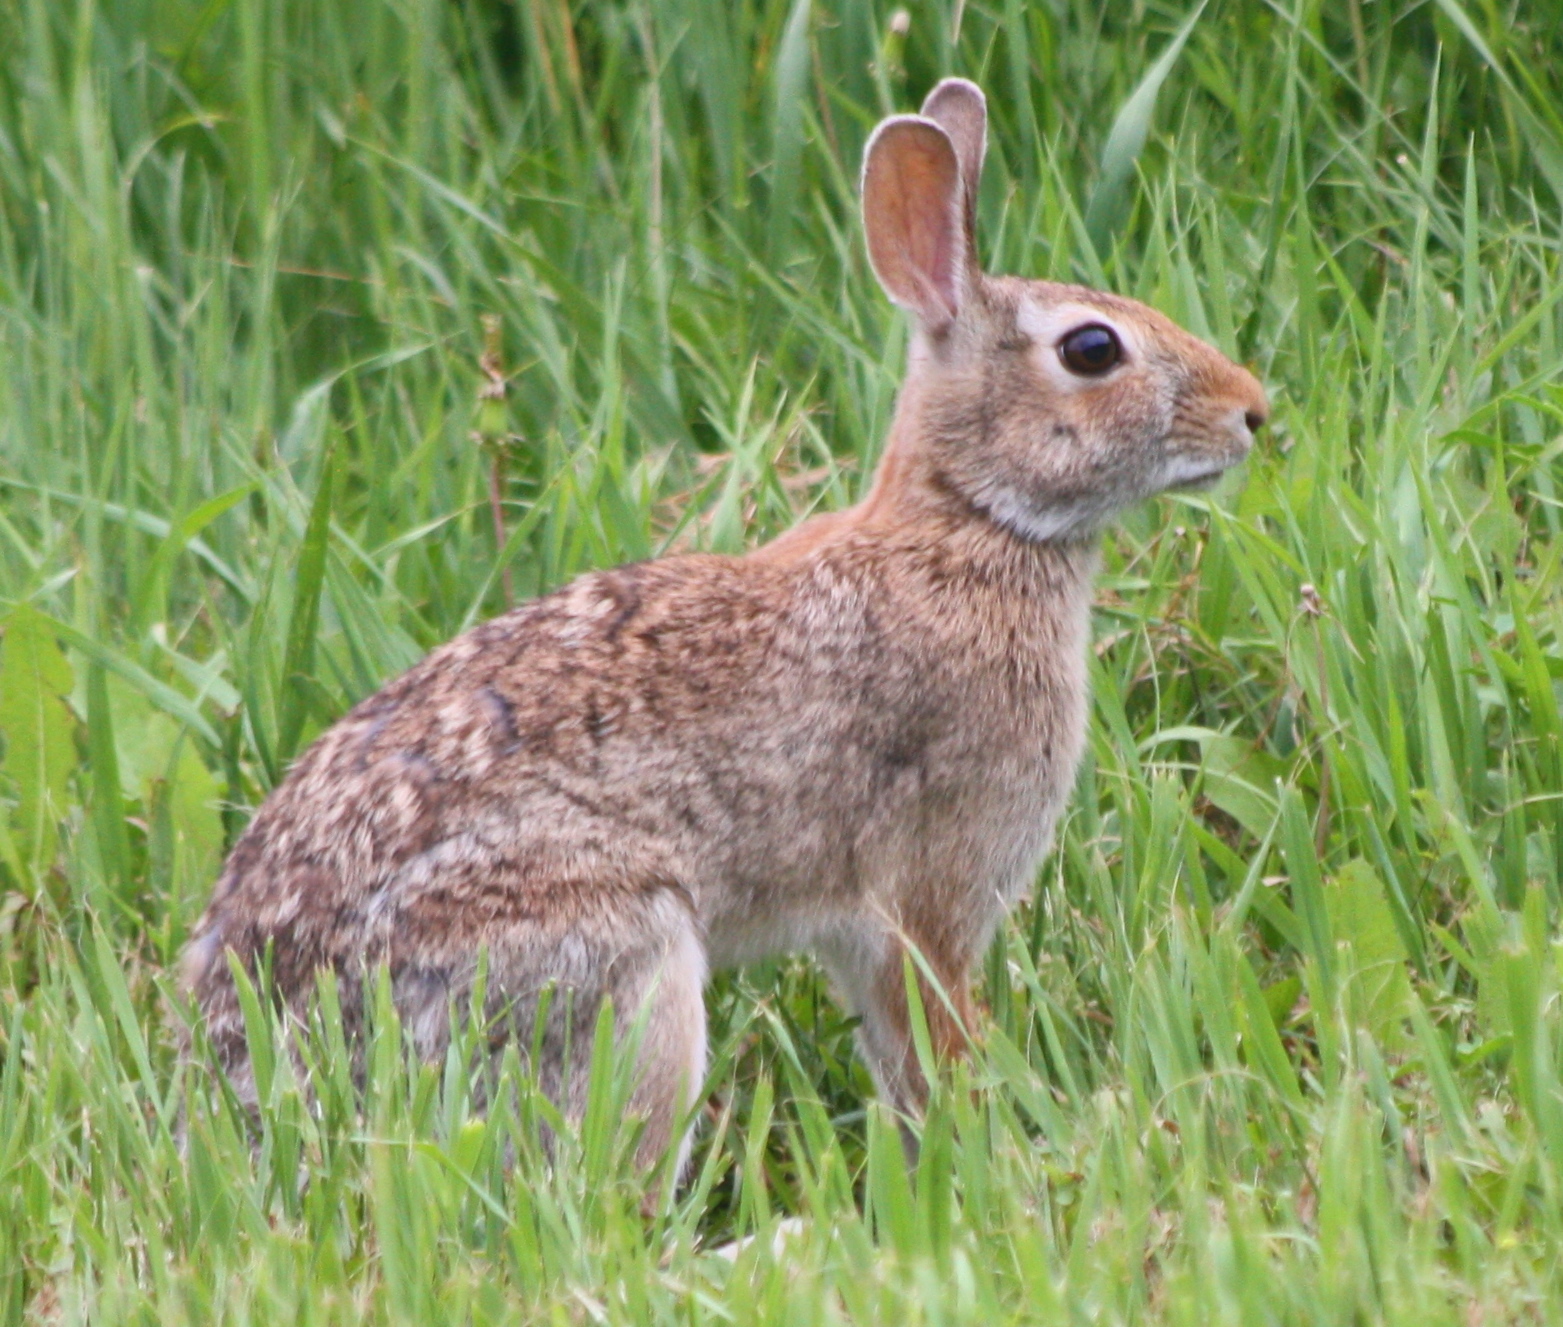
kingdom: Animalia
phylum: Chordata
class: Mammalia
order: Lagomorpha
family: Leporidae
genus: Sylvilagus
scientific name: Sylvilagus floridanus
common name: Eastern cottontail
